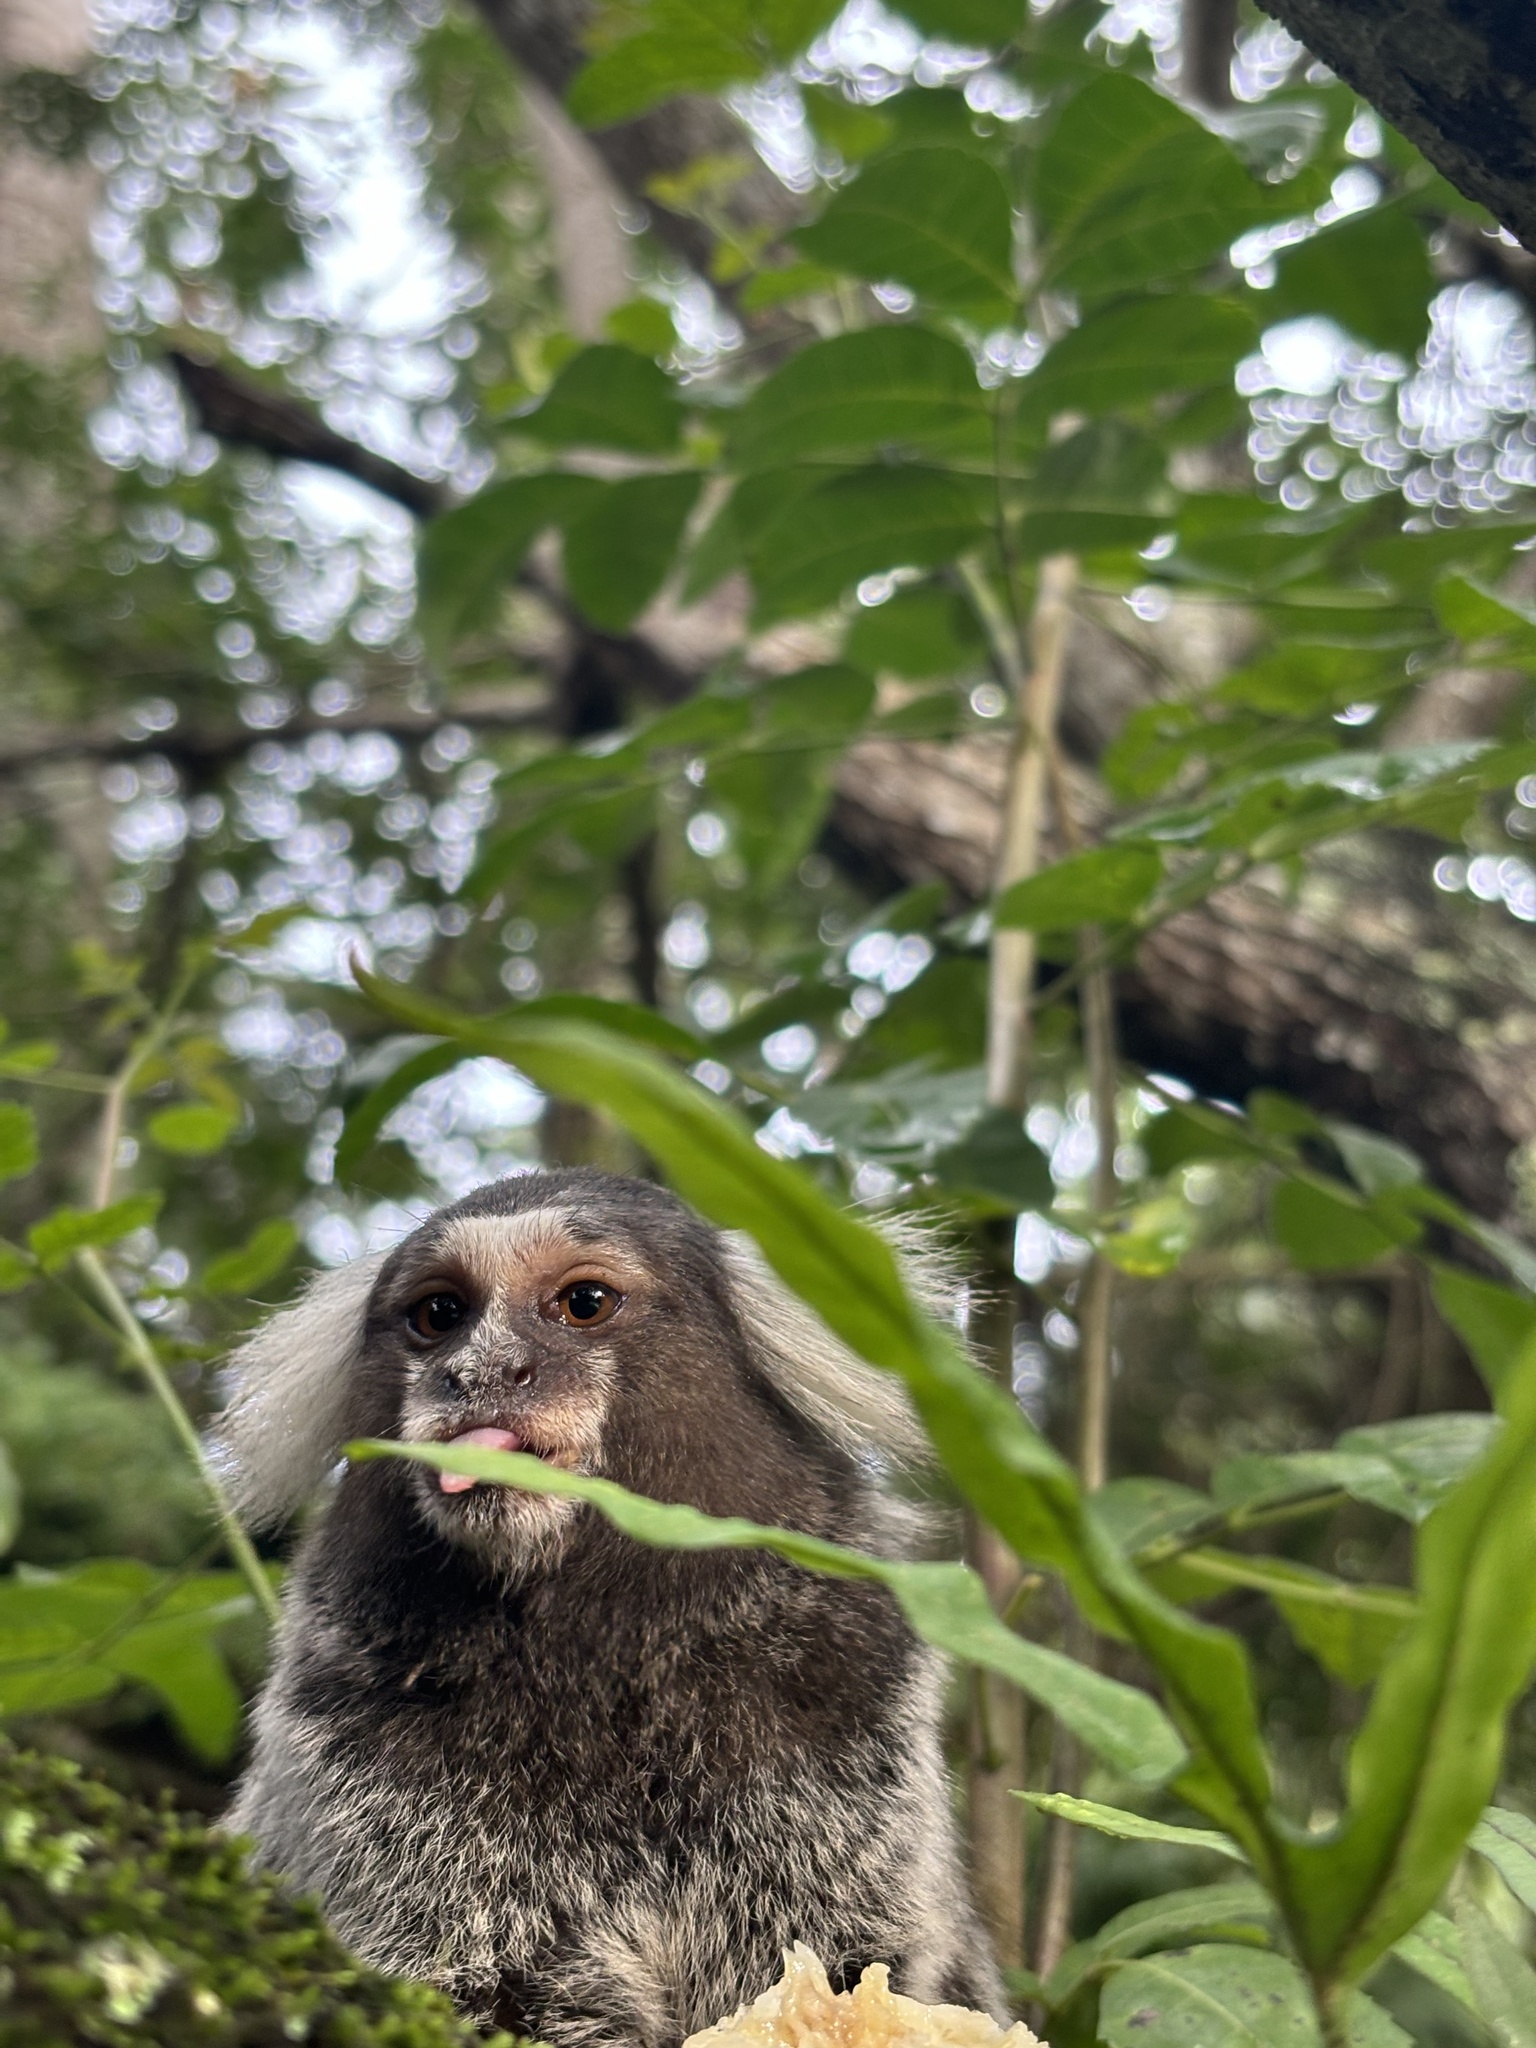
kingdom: Animalia
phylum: Chordata
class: Mammalia
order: Primates
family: Callitrichidae
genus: Callithrix
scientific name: Callithrix jacchus
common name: Common marmoset
